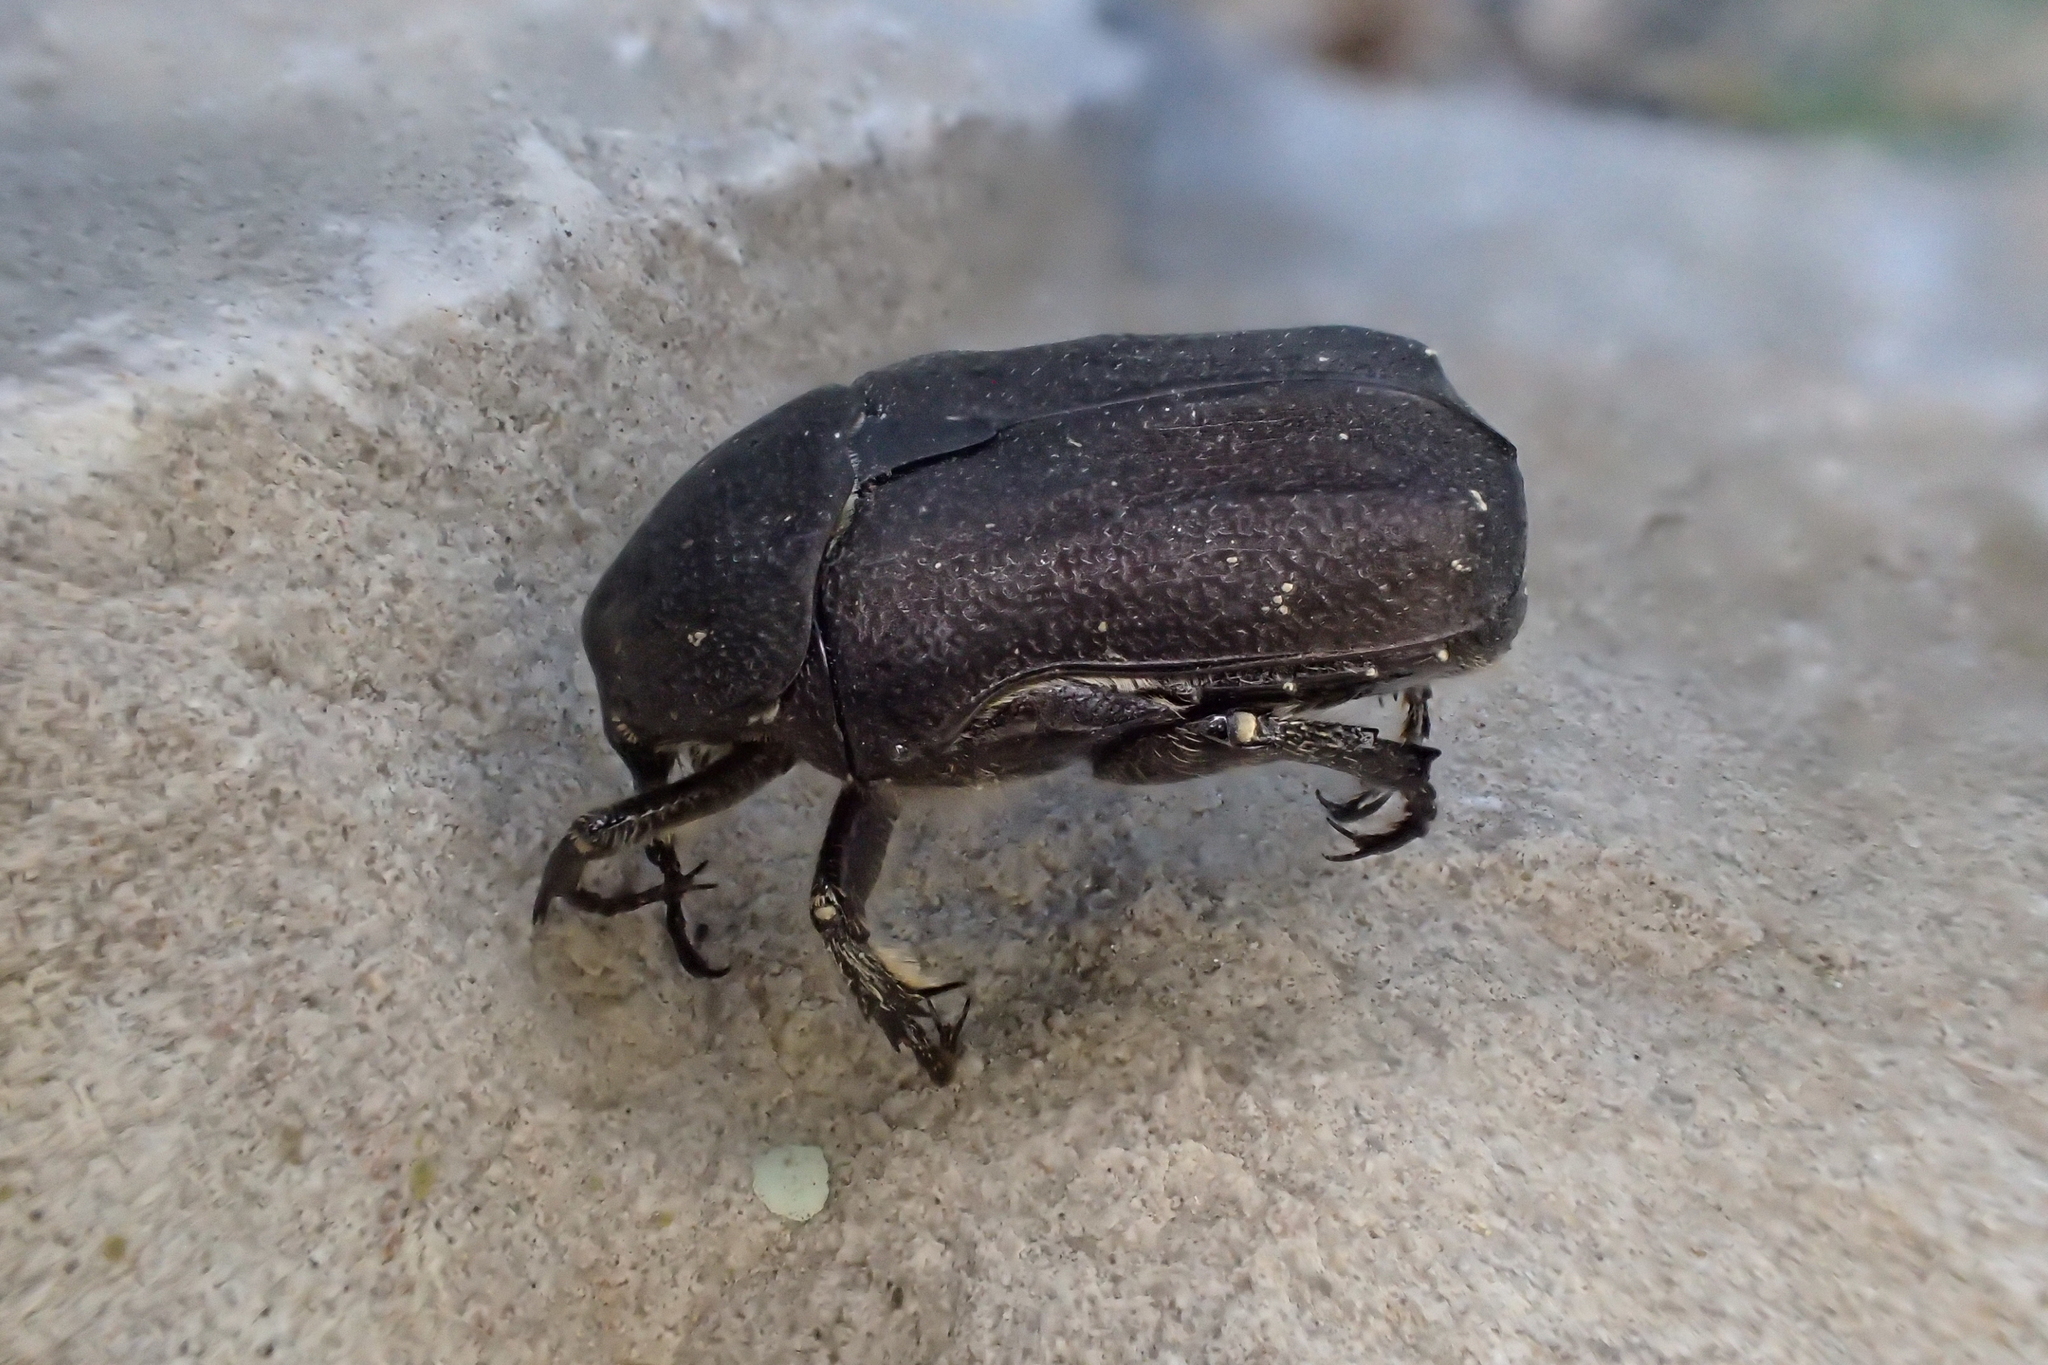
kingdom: Animalia
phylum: Arthropoda
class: Insecta
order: Coleoptera
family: Scarabaeidae
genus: Protaetia
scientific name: Protaetia morio
